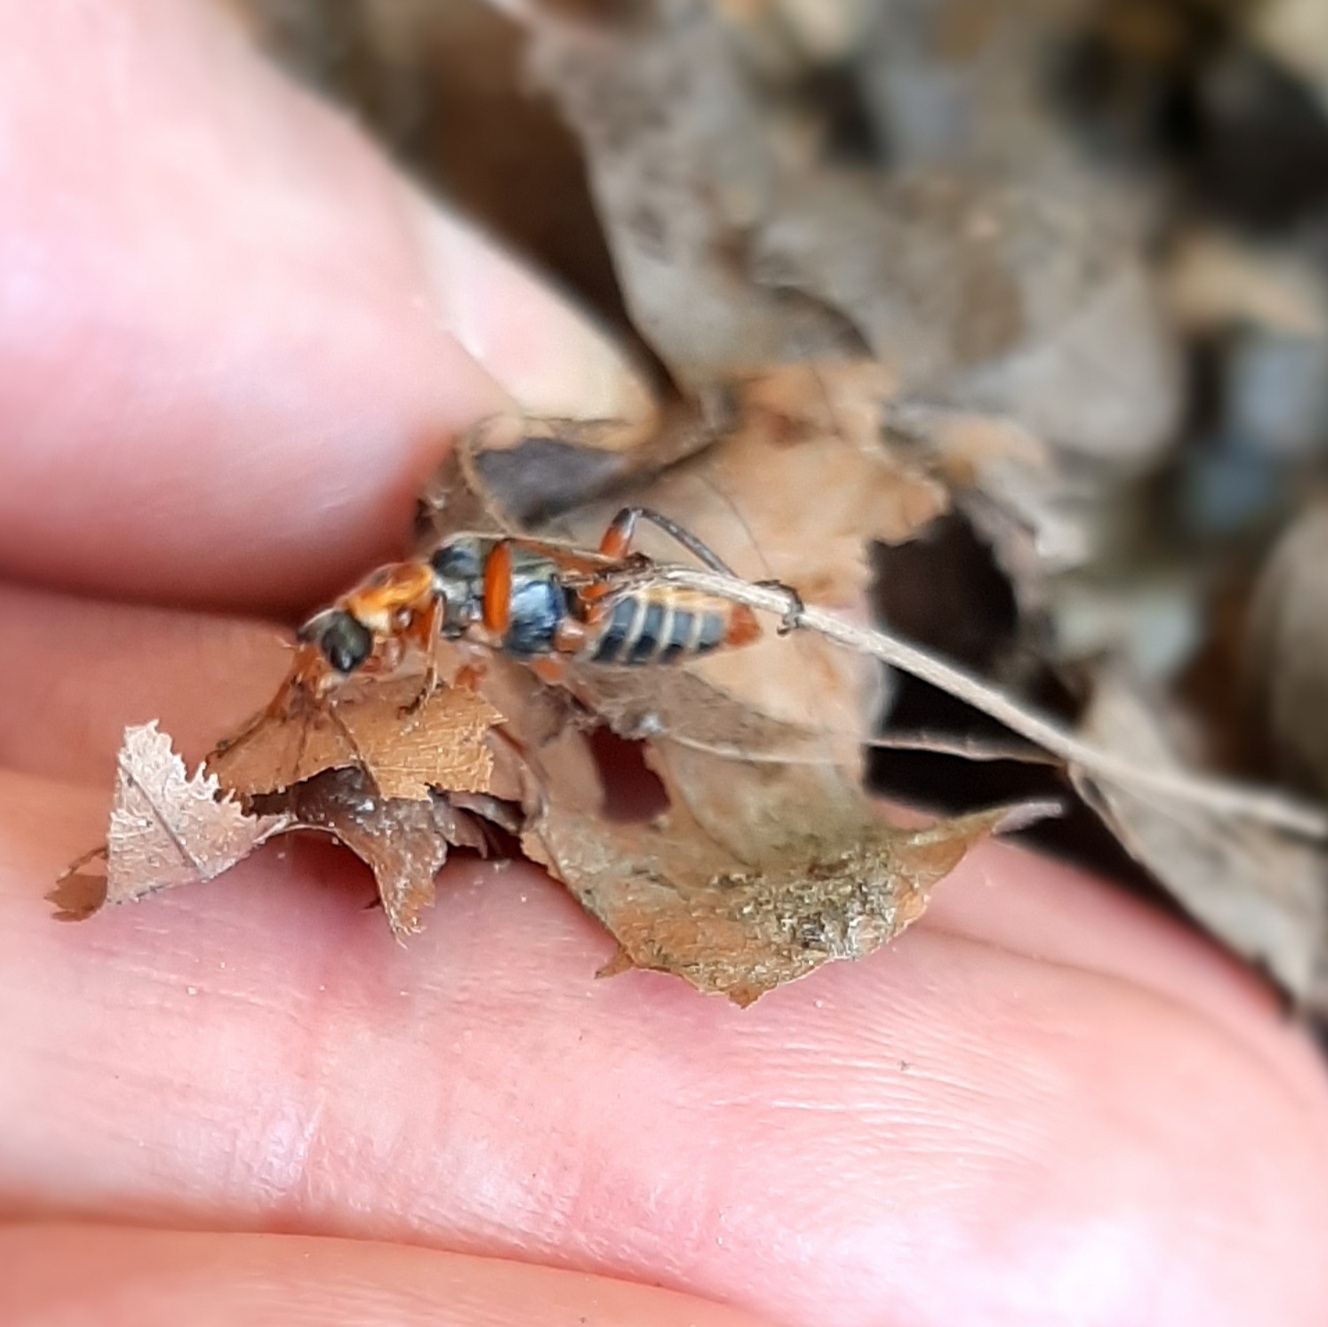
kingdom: Animalia
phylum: Arthropoda
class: Insecta
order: Coleoptera
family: Cantharidae
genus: Cantharis
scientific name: Cantharis nigricans
